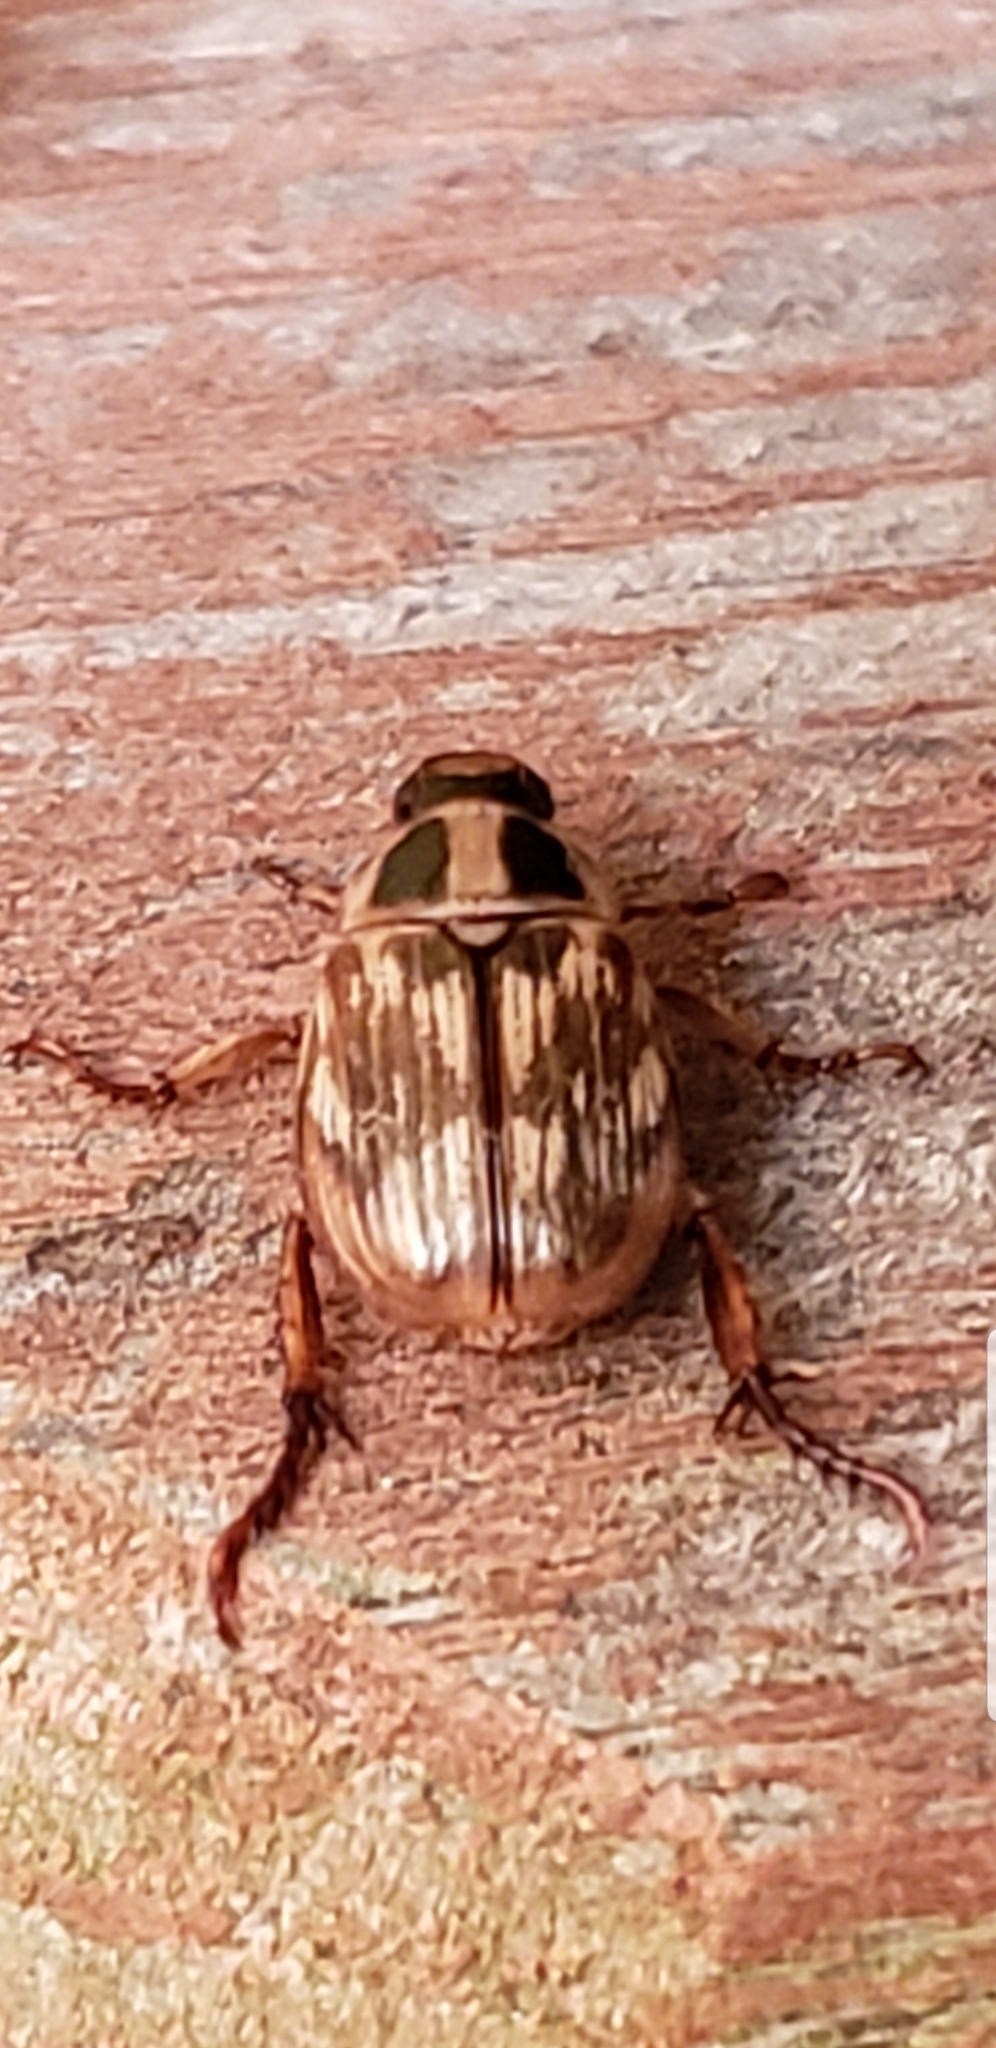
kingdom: Animalia
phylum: Arthropoda
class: Insecta
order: Coleoptera
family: Scarabaeidae
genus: Exomala
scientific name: Exomala orientalis
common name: Oriental beetle
